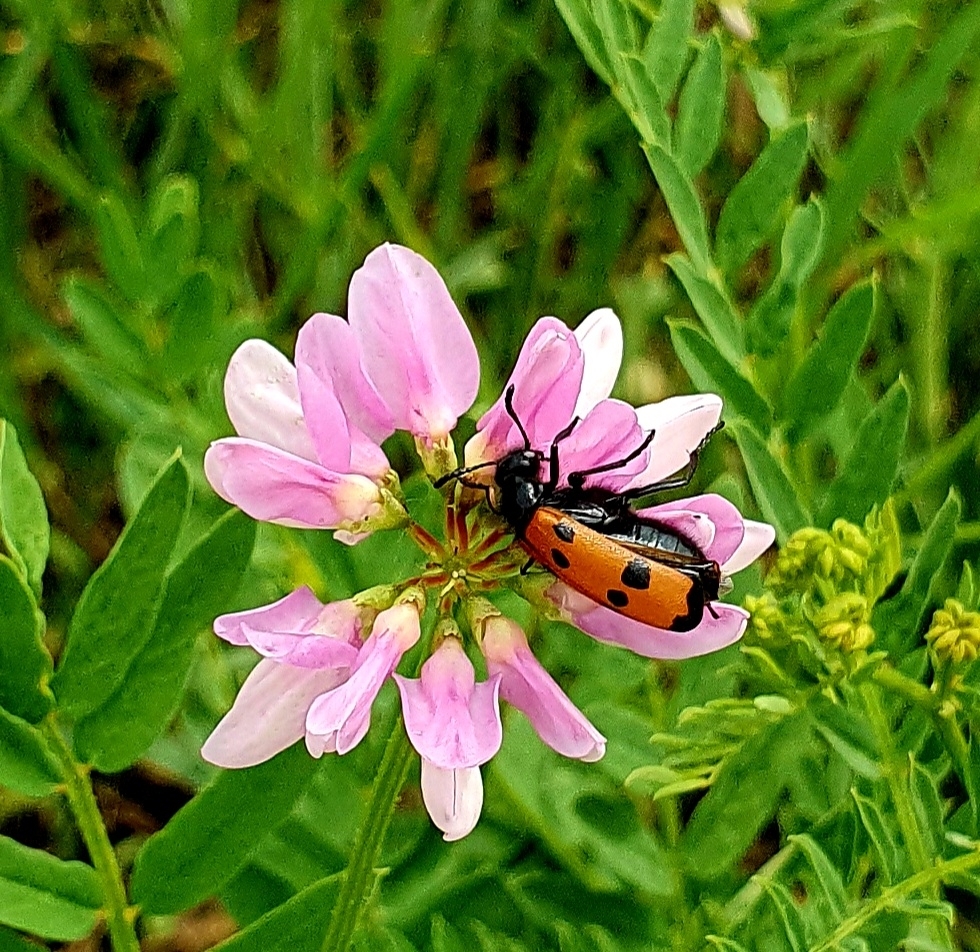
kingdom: Animalia
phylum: Arthropoda
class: Insecta
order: Coleoptera
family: Meloidae
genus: Mylabris
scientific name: Mylabris quadripunctata
